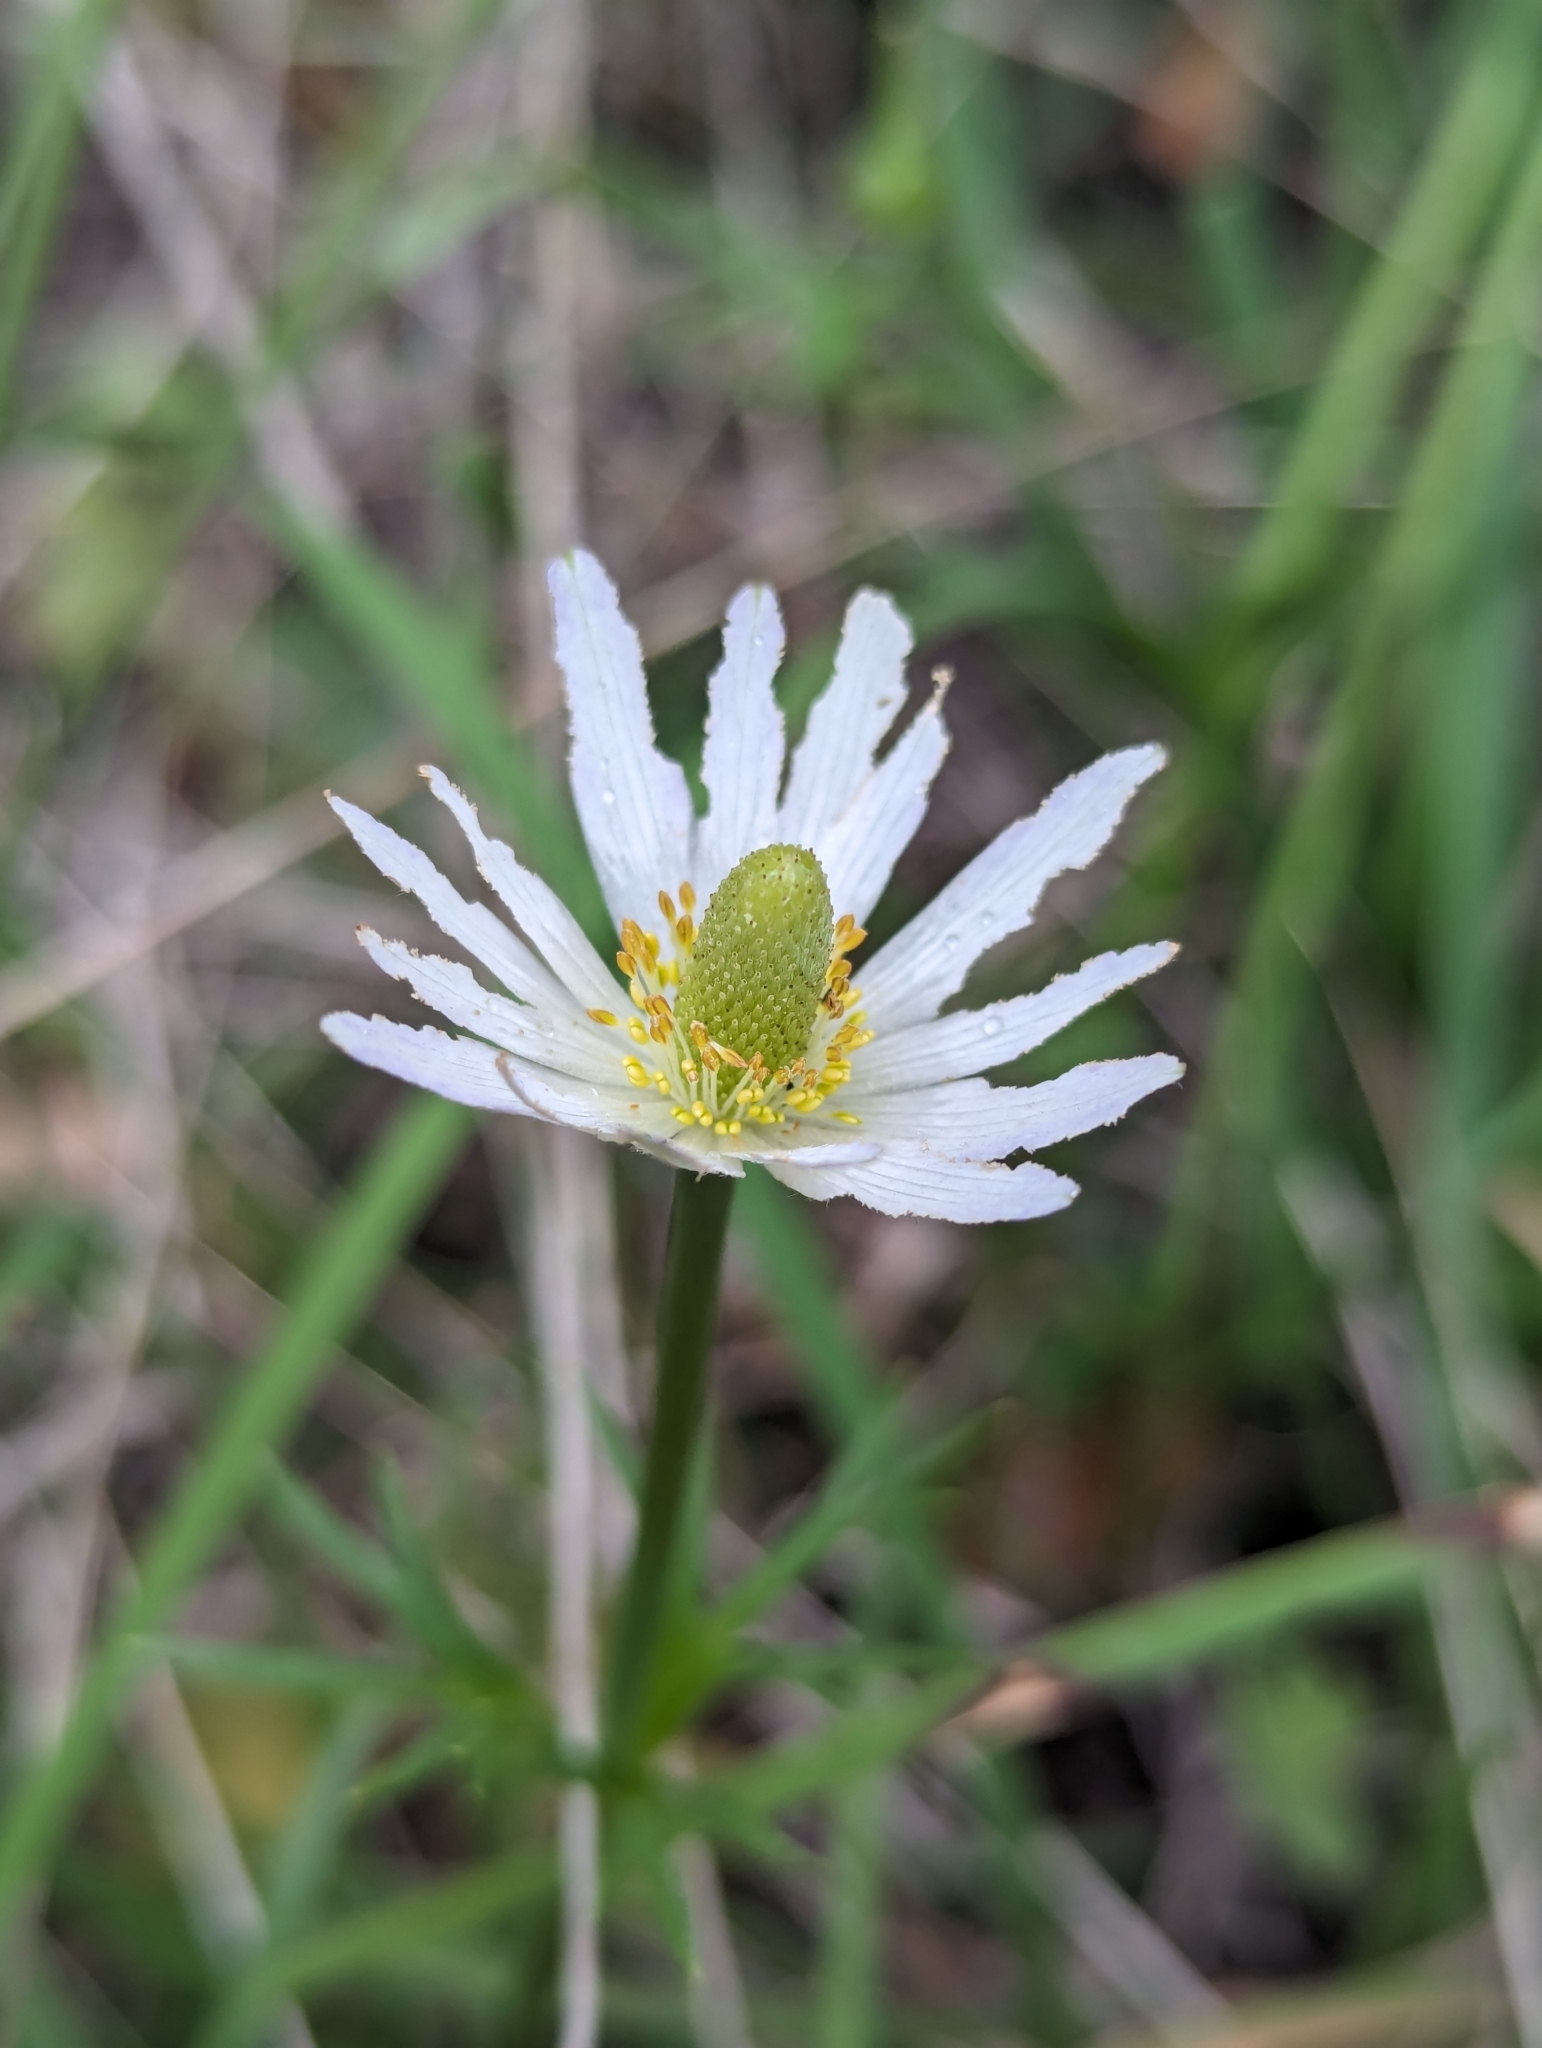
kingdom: Plantae
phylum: Tracheophyta
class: Magnoliopsida
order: Ranunculales
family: Ranunculaceae
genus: Anemone
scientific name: Anemone berlandieri
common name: Ten-petal anemone
